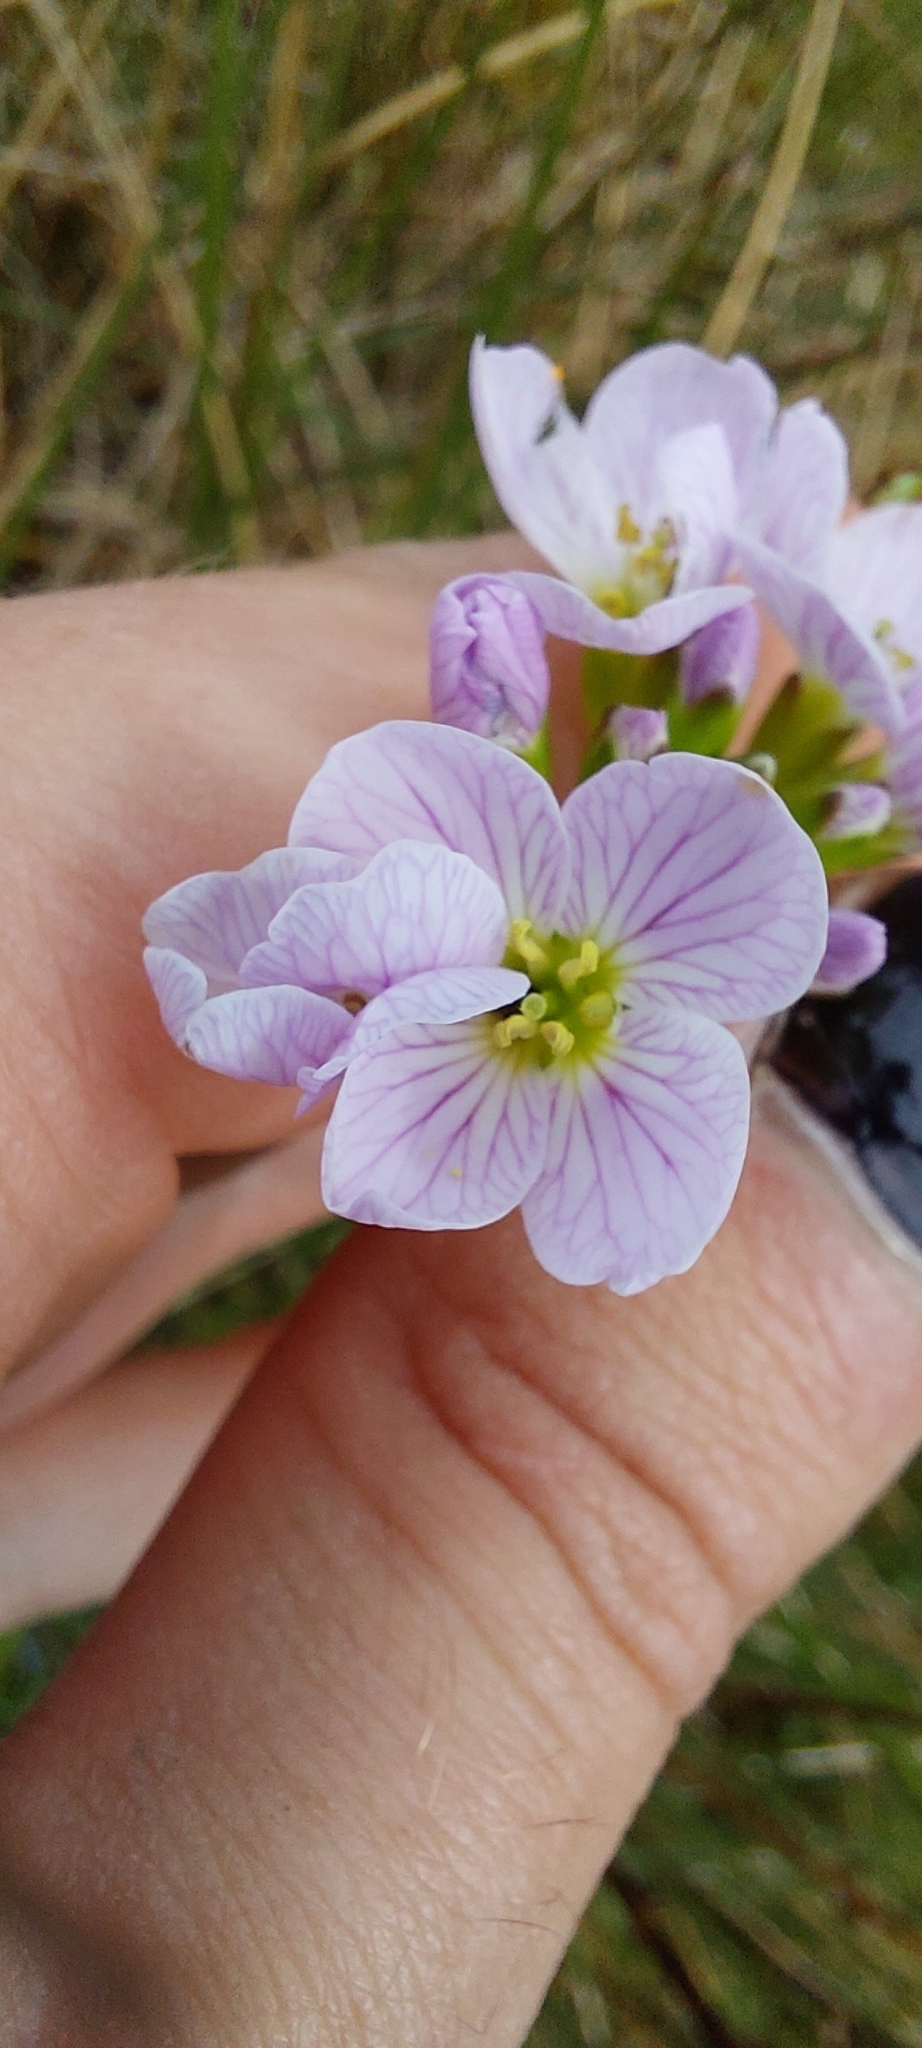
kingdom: Plantae
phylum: Tracheophyta
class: Magnoliopsida
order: Brassicales
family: Brassicaceae
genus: Cardamine
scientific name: Cardamine pratensis
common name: Cuckoo flower
